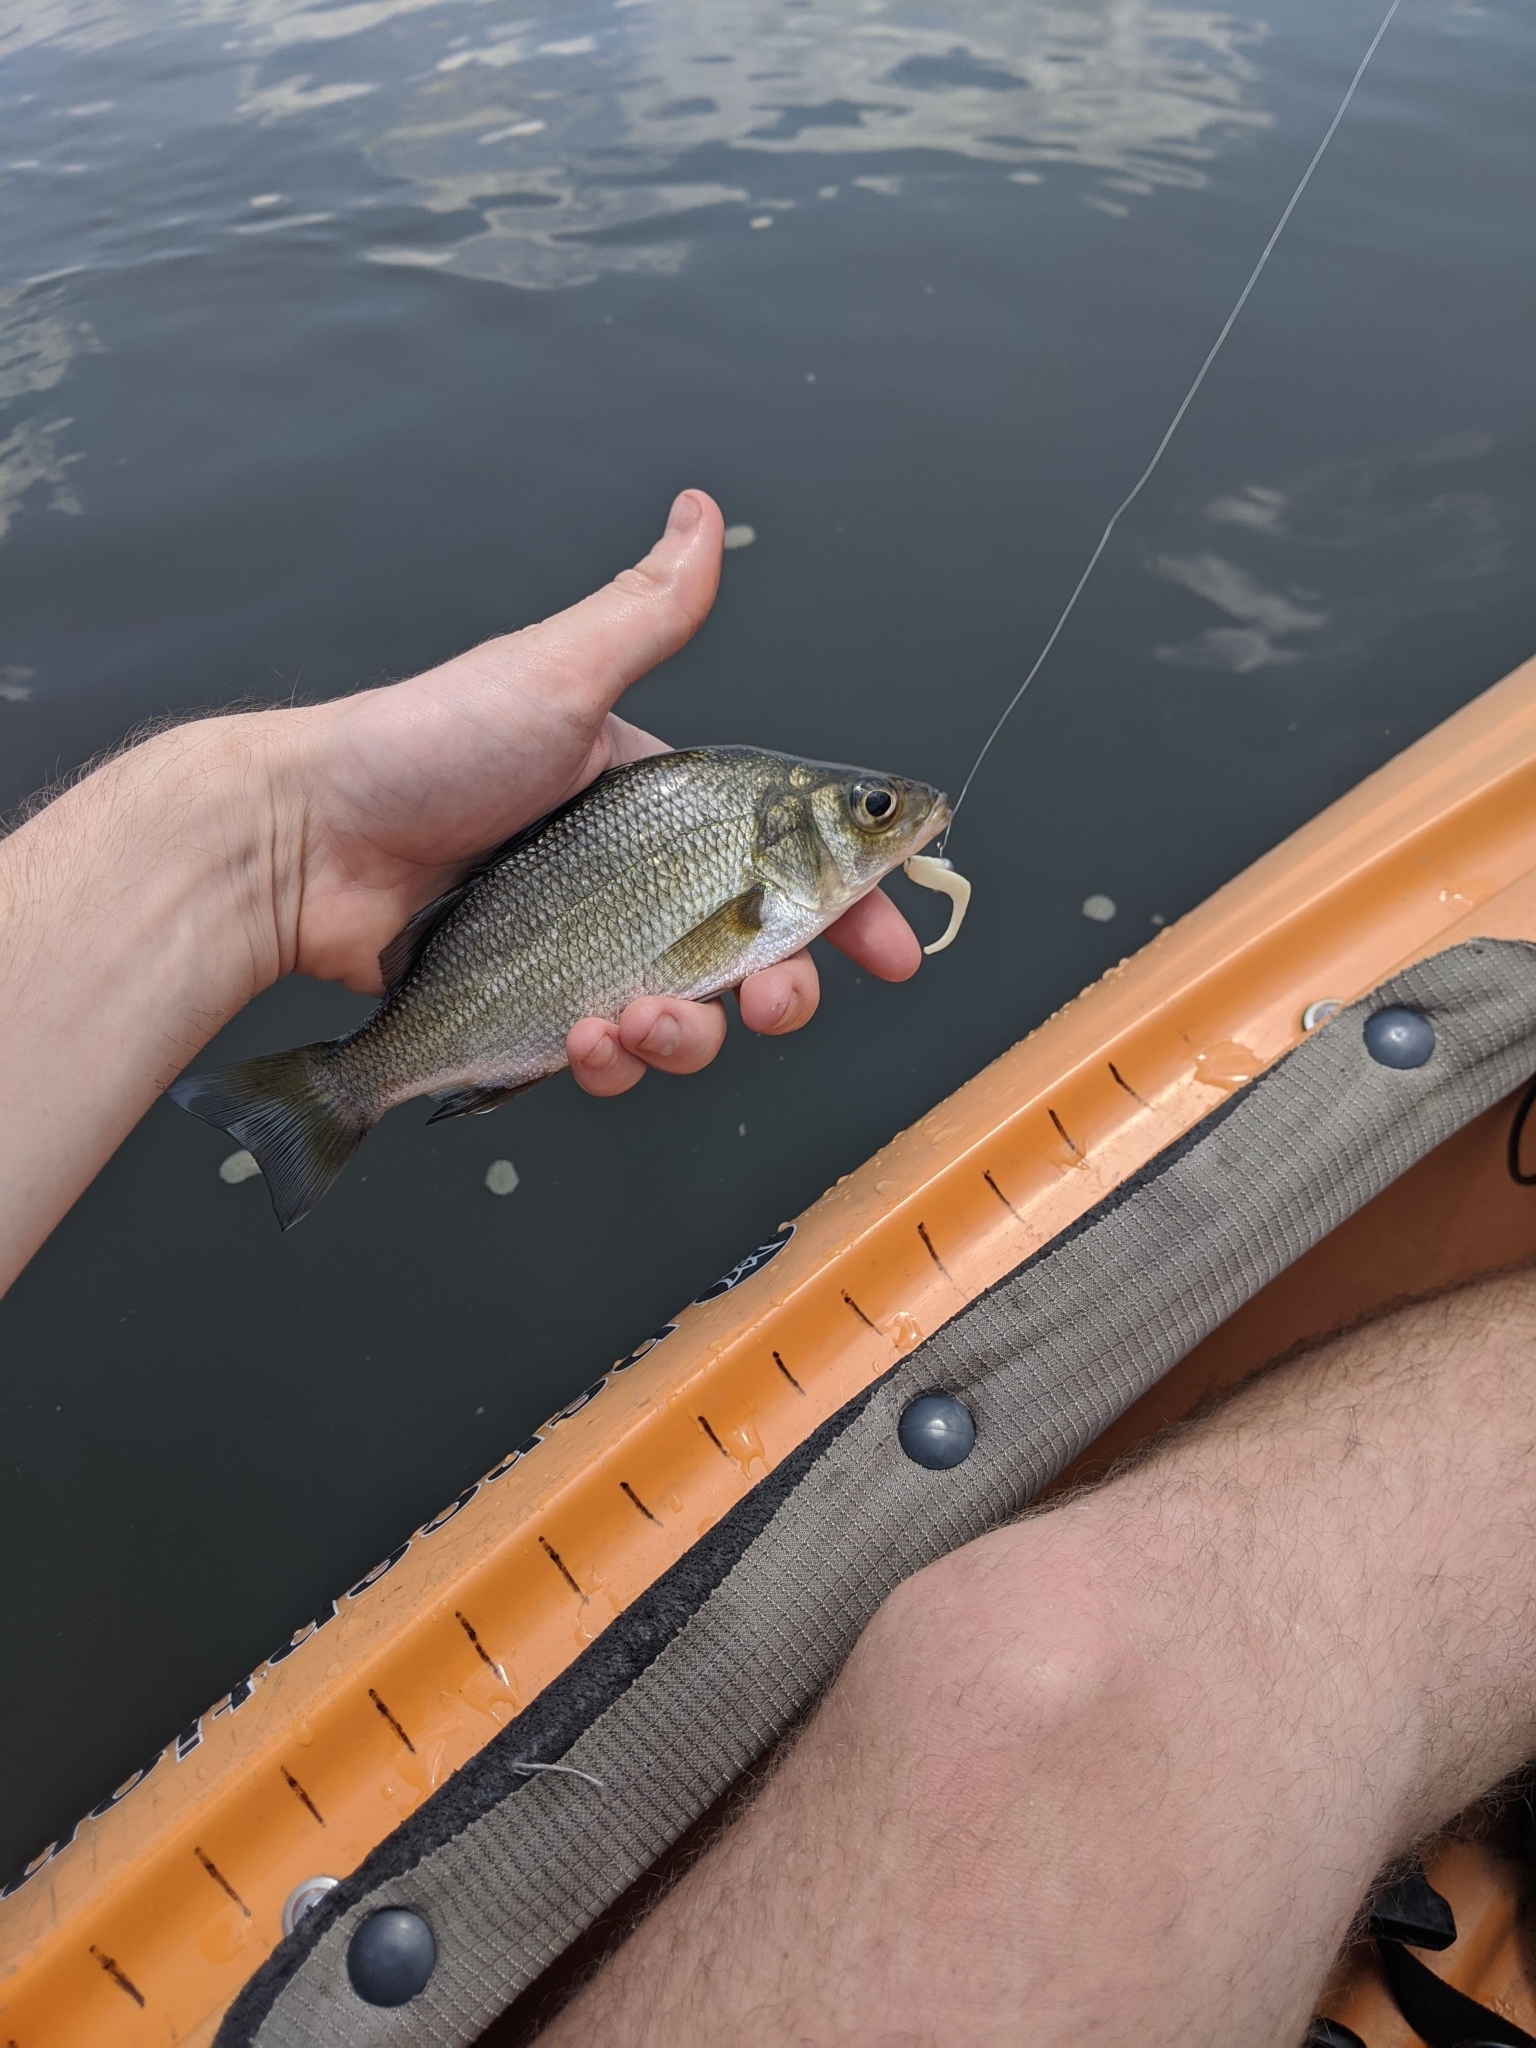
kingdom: Animalia
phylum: Chordata
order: Perciformes
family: Moronidae
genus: Morone
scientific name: Morone americana
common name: White perch
